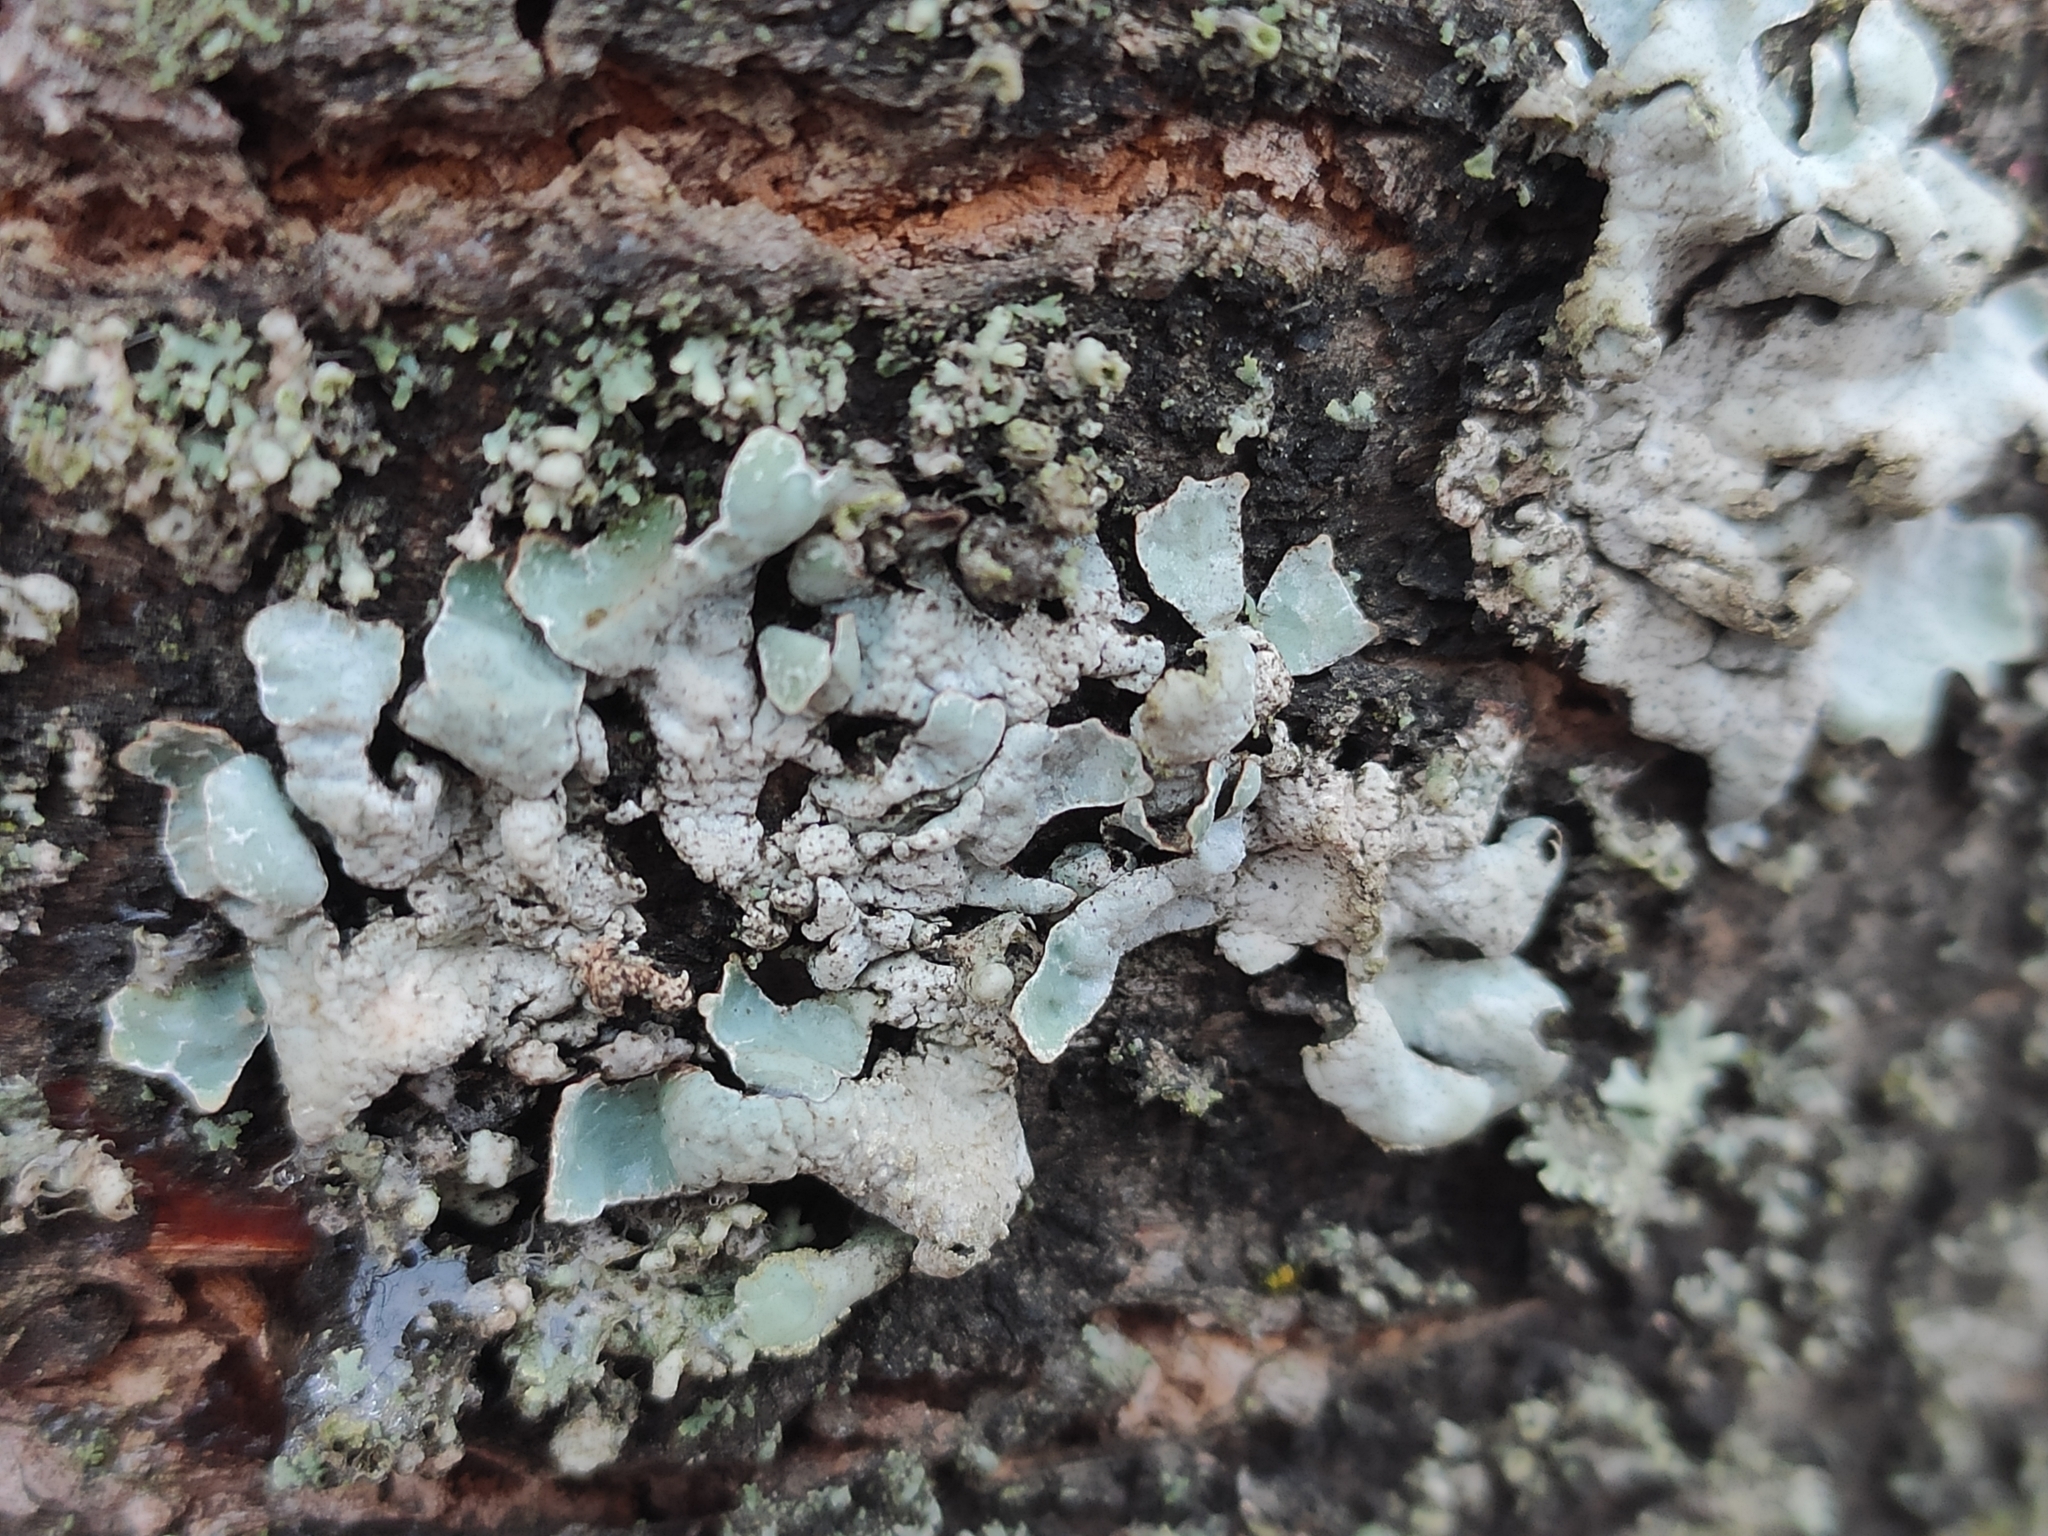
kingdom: Fungi
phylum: Ascomycota
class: Lecanoromycetes
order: Lecanorales
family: Parmeliaceae
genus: Parmelia
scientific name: Parmelia sulcata
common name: Netted shield lichen
